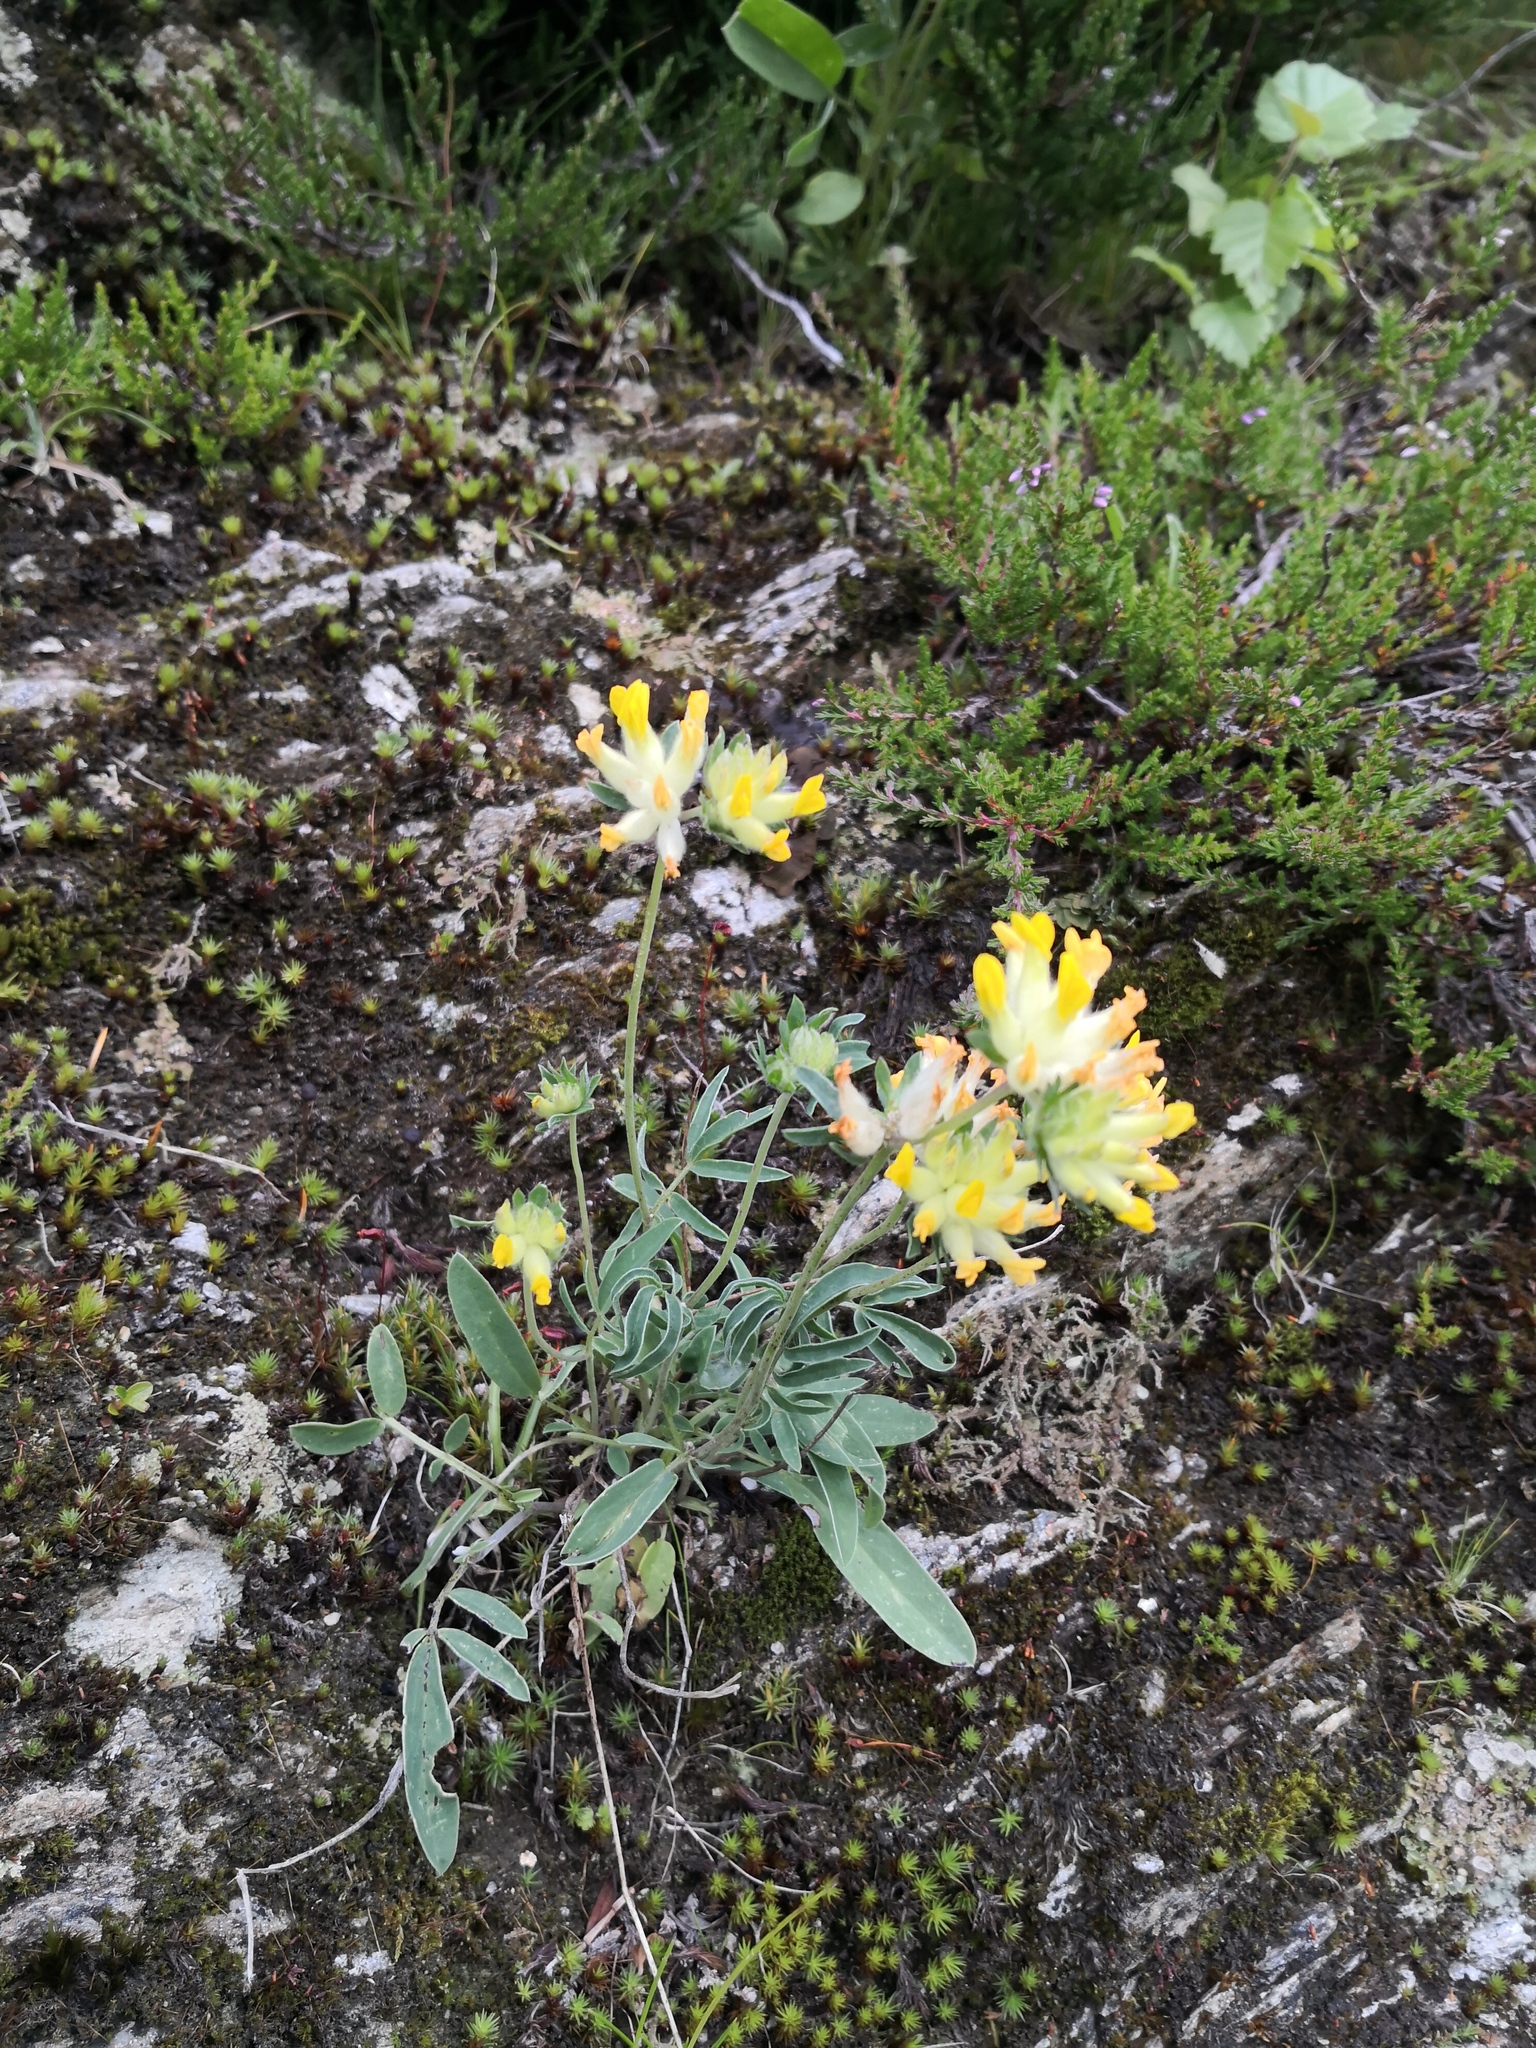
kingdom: Plantae
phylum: Tracheophyta
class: Magnoliopsida
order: Fabales
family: Fabaceae
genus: Anthyllis
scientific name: Anthyllis vulneraria
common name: Kidney vetch
